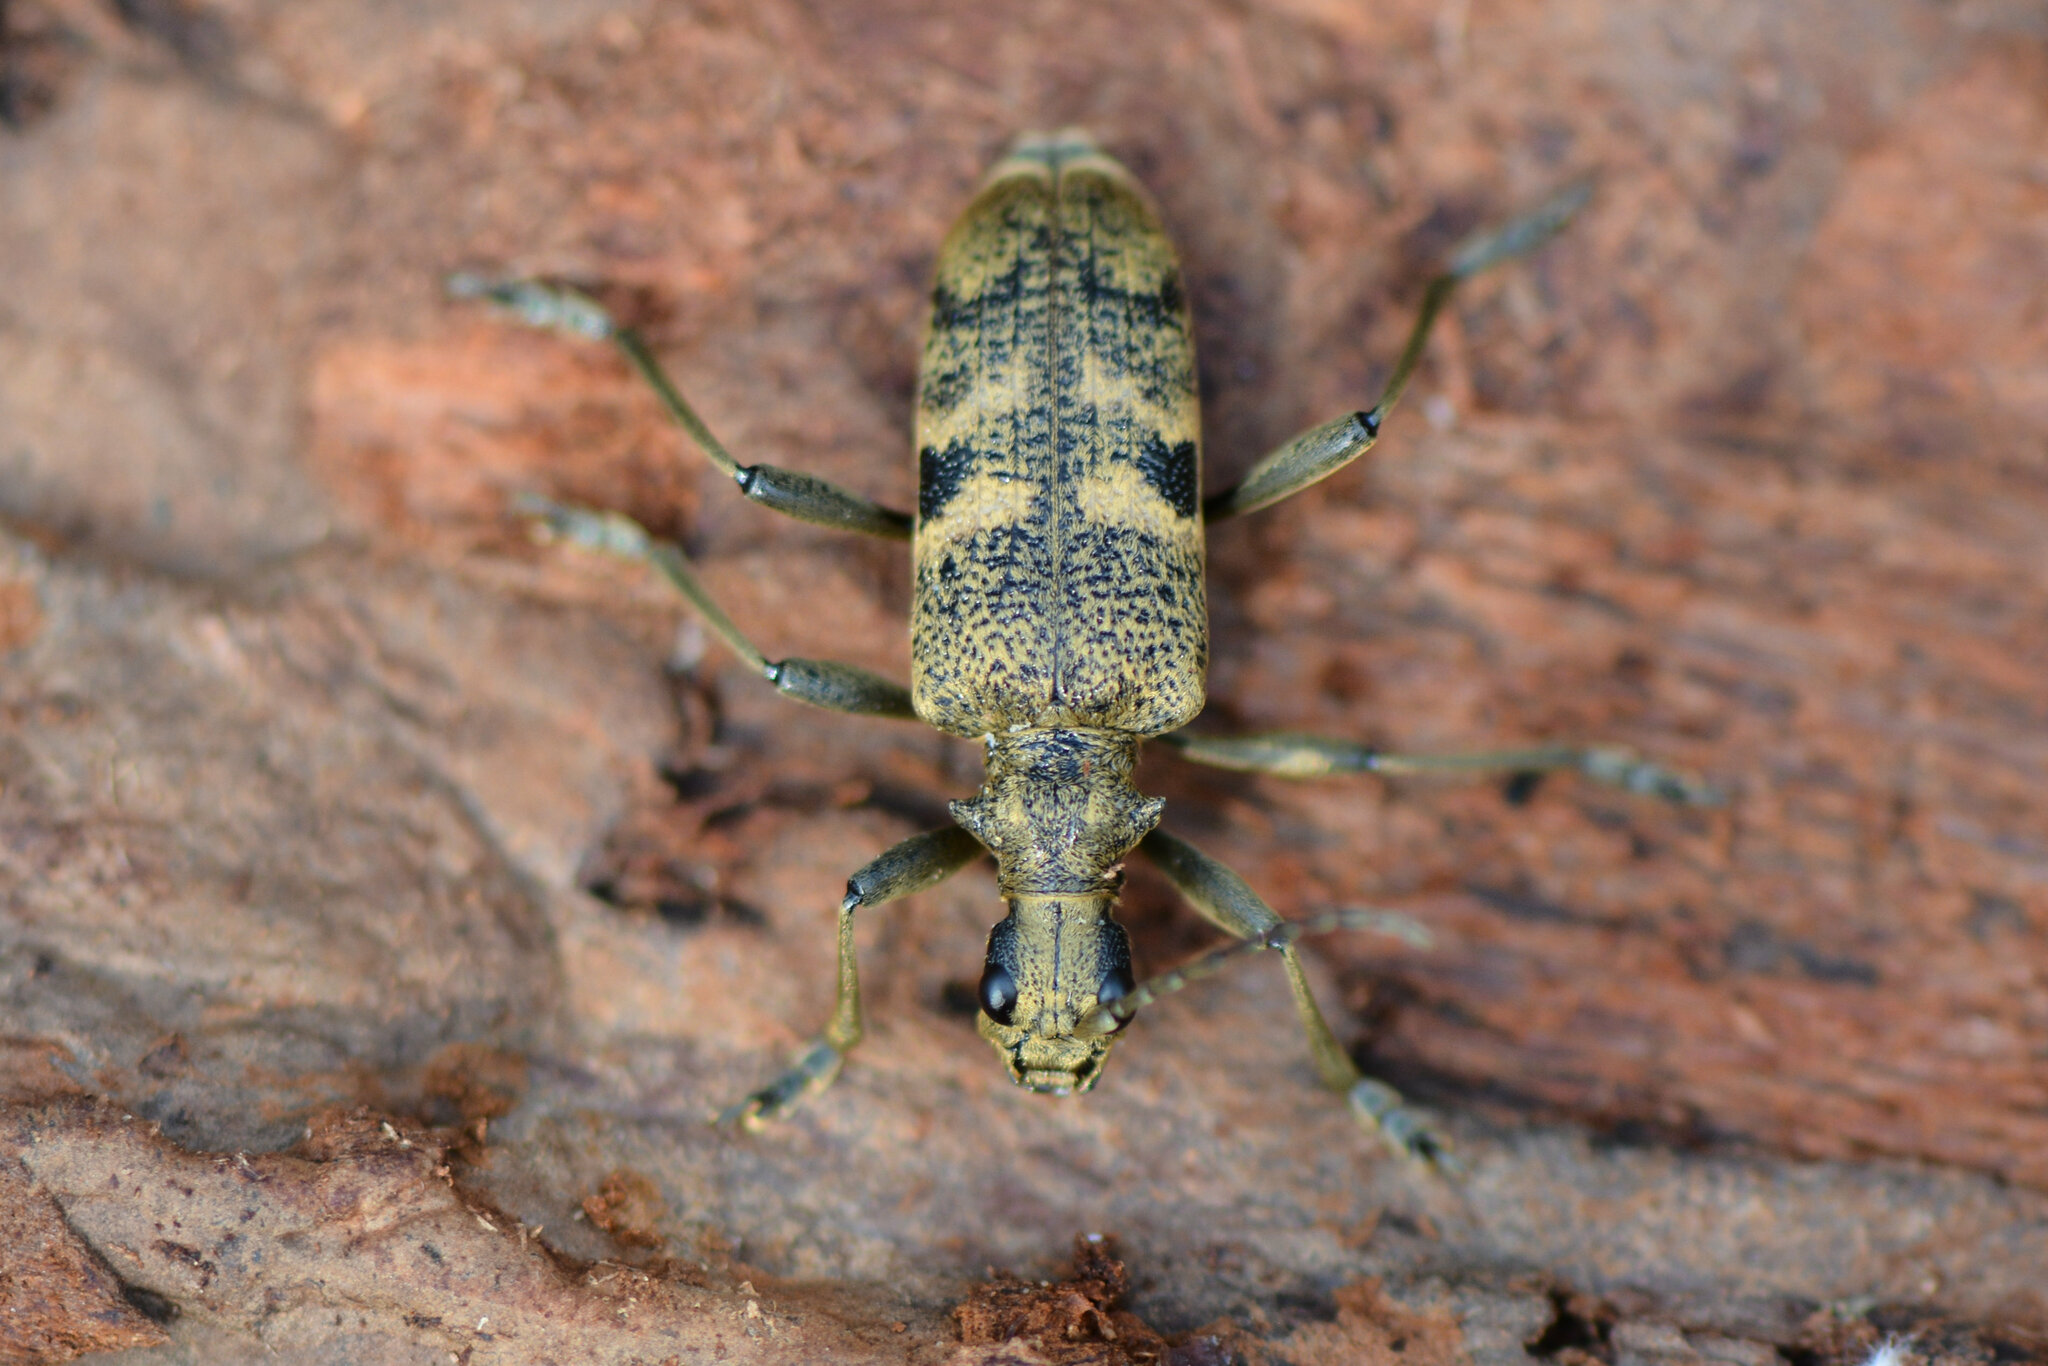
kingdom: Animalia
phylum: Arthropoda
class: Insecta
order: Coleoptera
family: Cerambycidae
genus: Rhagium
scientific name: Rhagium mordax
